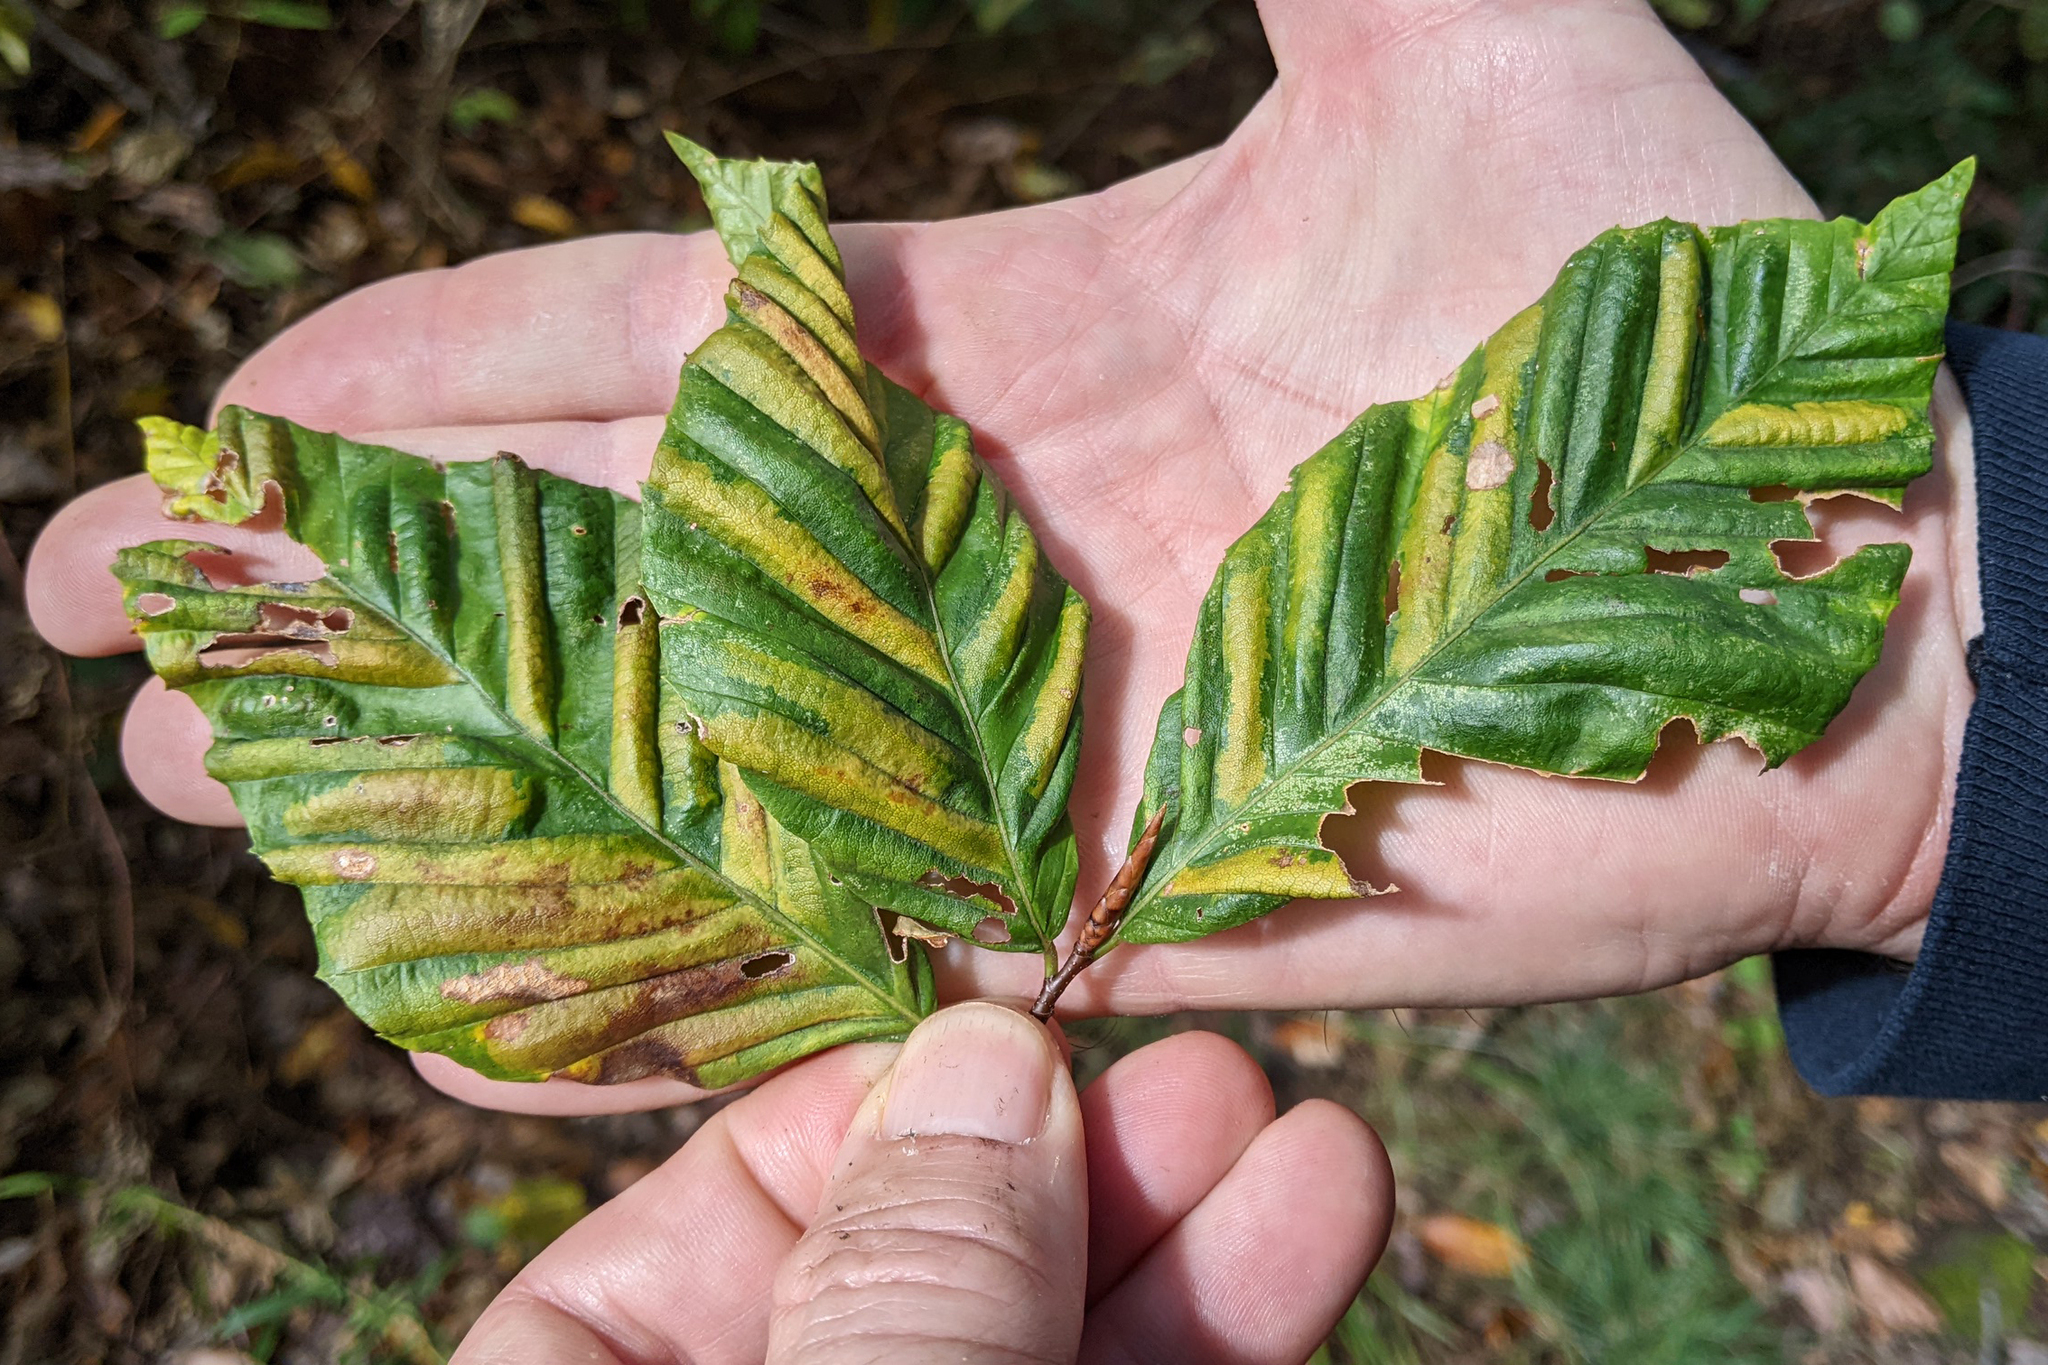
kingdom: Animalia
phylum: Nematoda
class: Chromadorea
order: Rhabditida
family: Anguinidae
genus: Litylenchus
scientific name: Litylenchus crenatae
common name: Beech leaf disease
